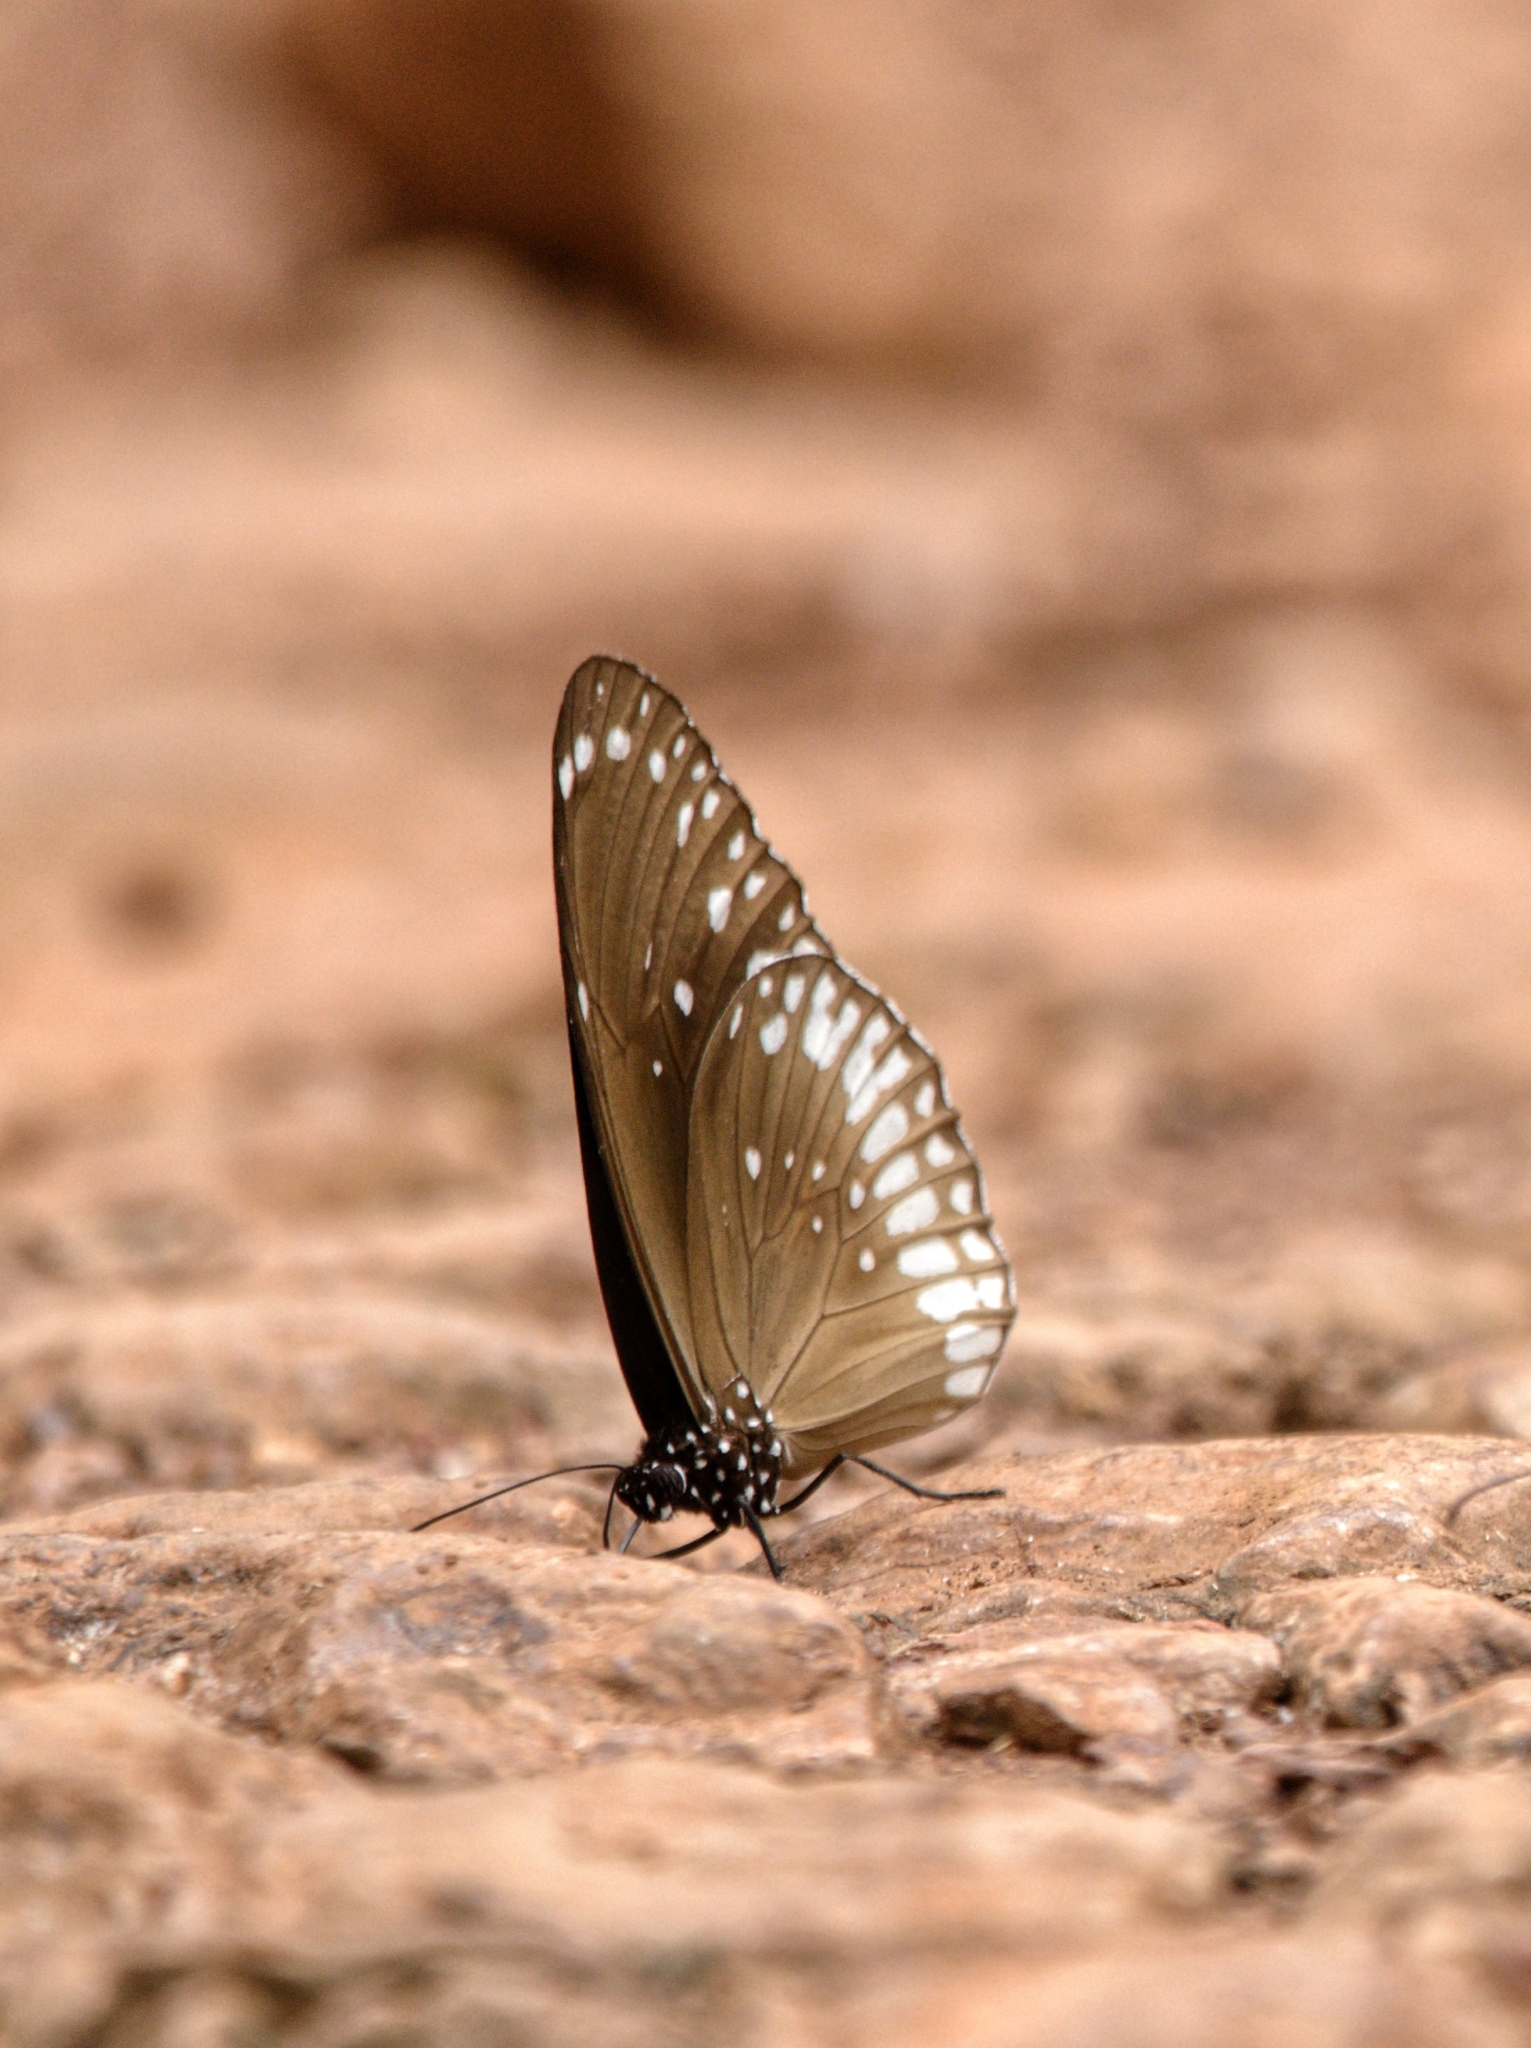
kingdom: Animalia
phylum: Arthropoda
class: Insecta
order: Lepidoptera
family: Nymphalidae
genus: Euploea
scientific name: Euploea core
